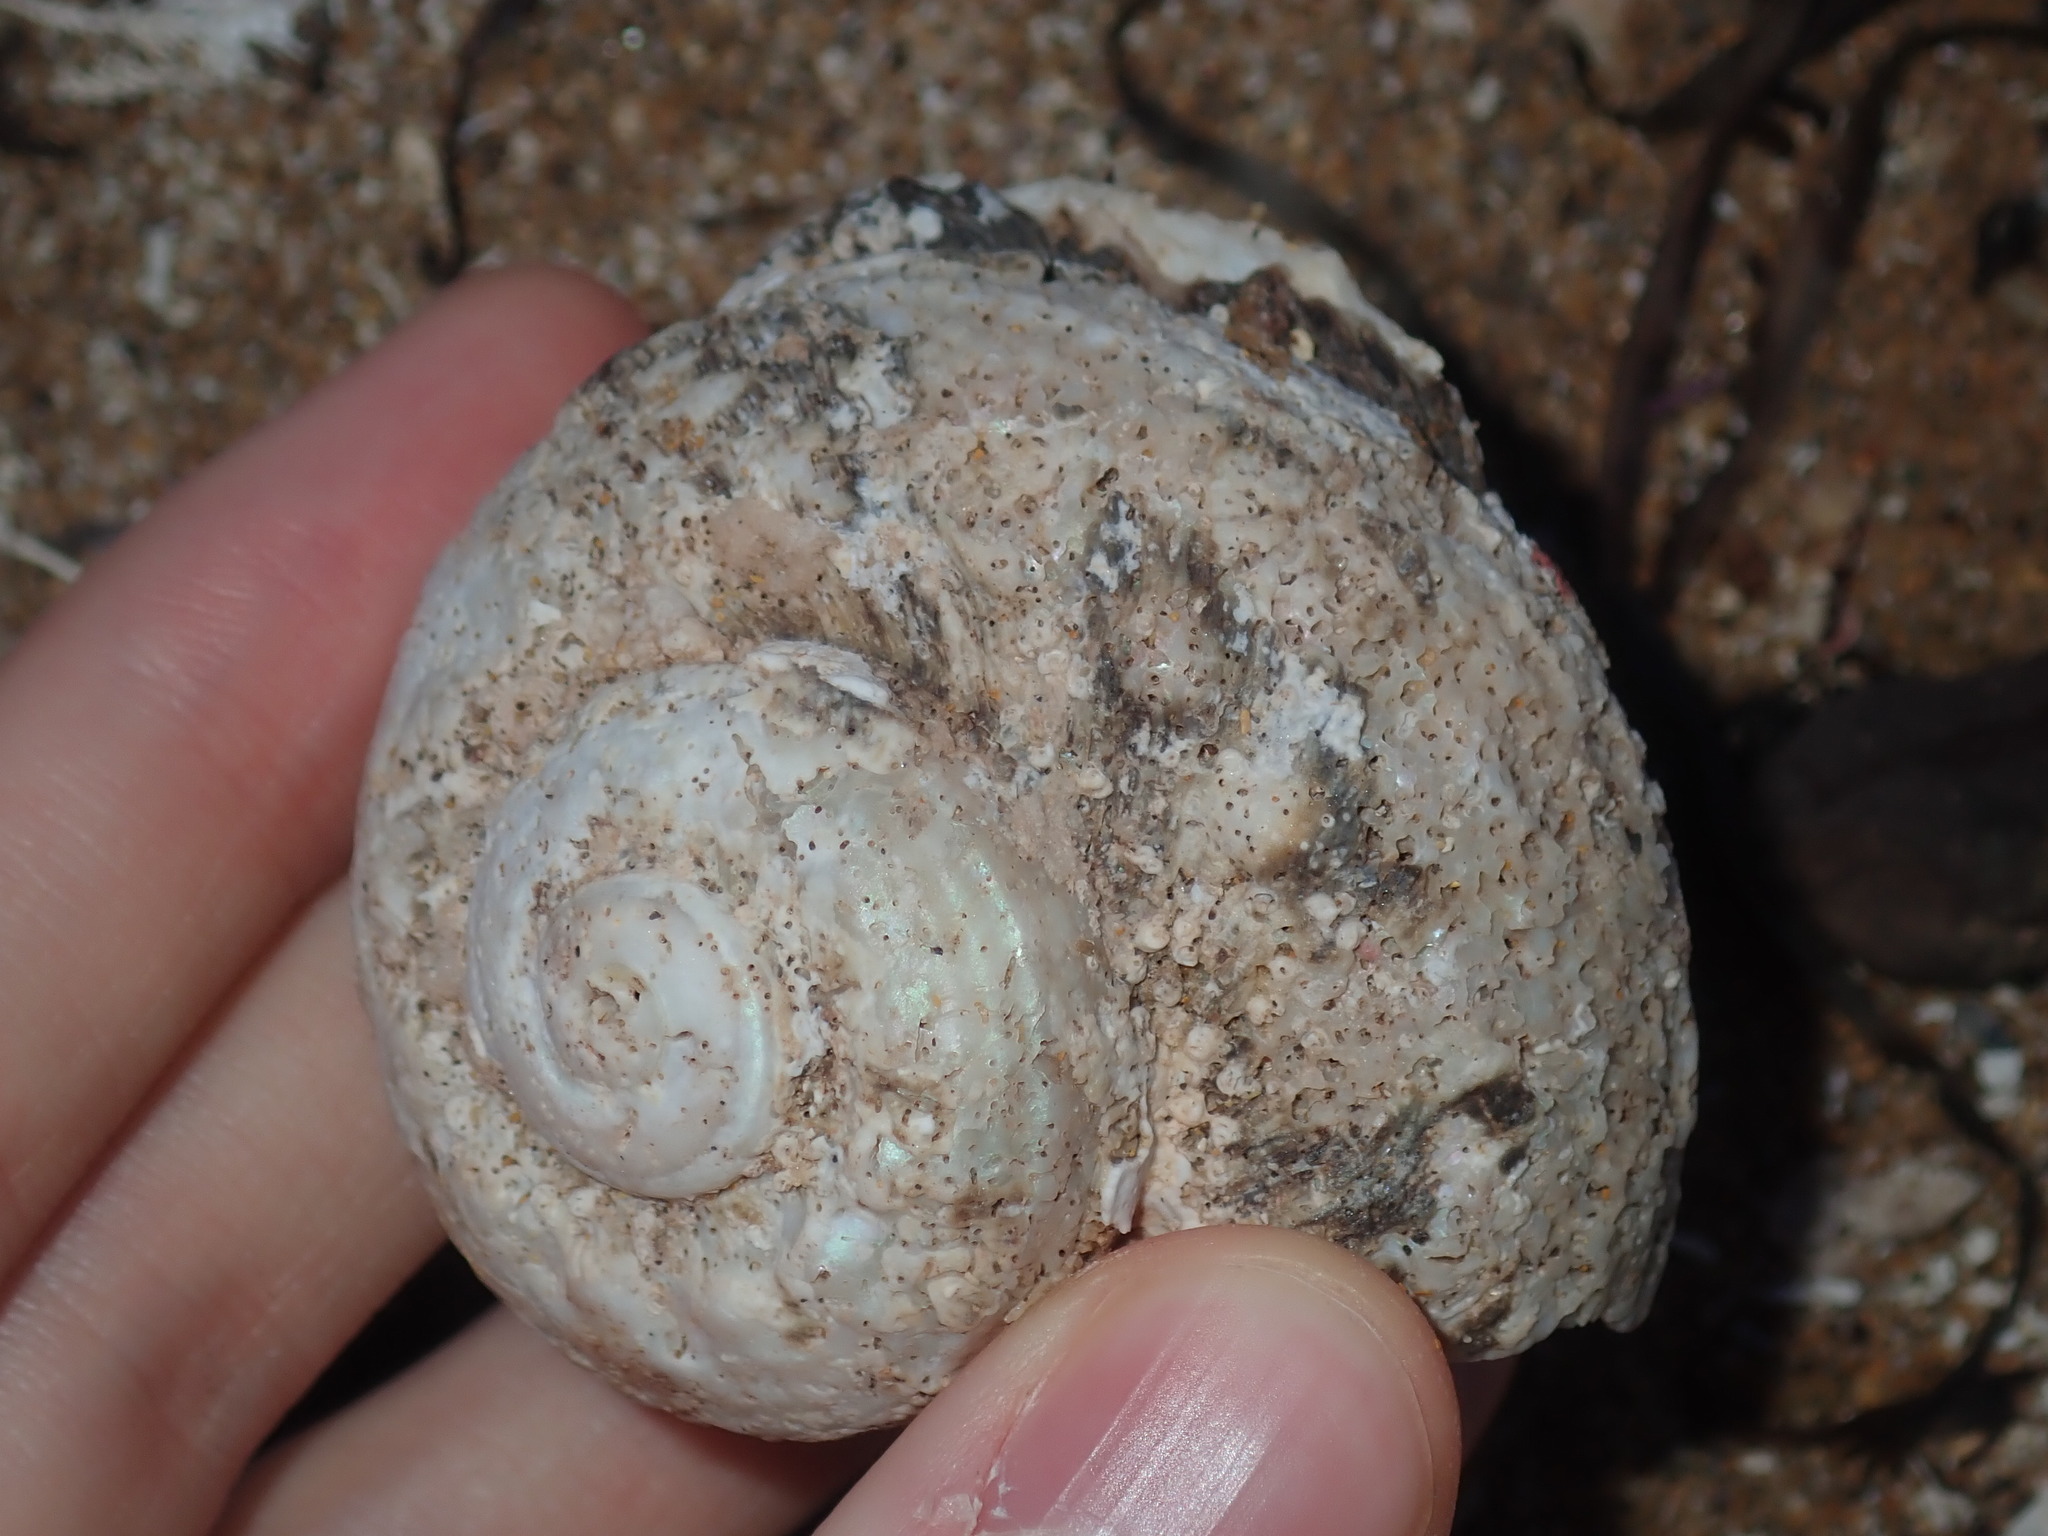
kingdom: Animalia
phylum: Mollusca
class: Gastropoda
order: Trochida
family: Turbinidae
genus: Lunella
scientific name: Lunella torquata
